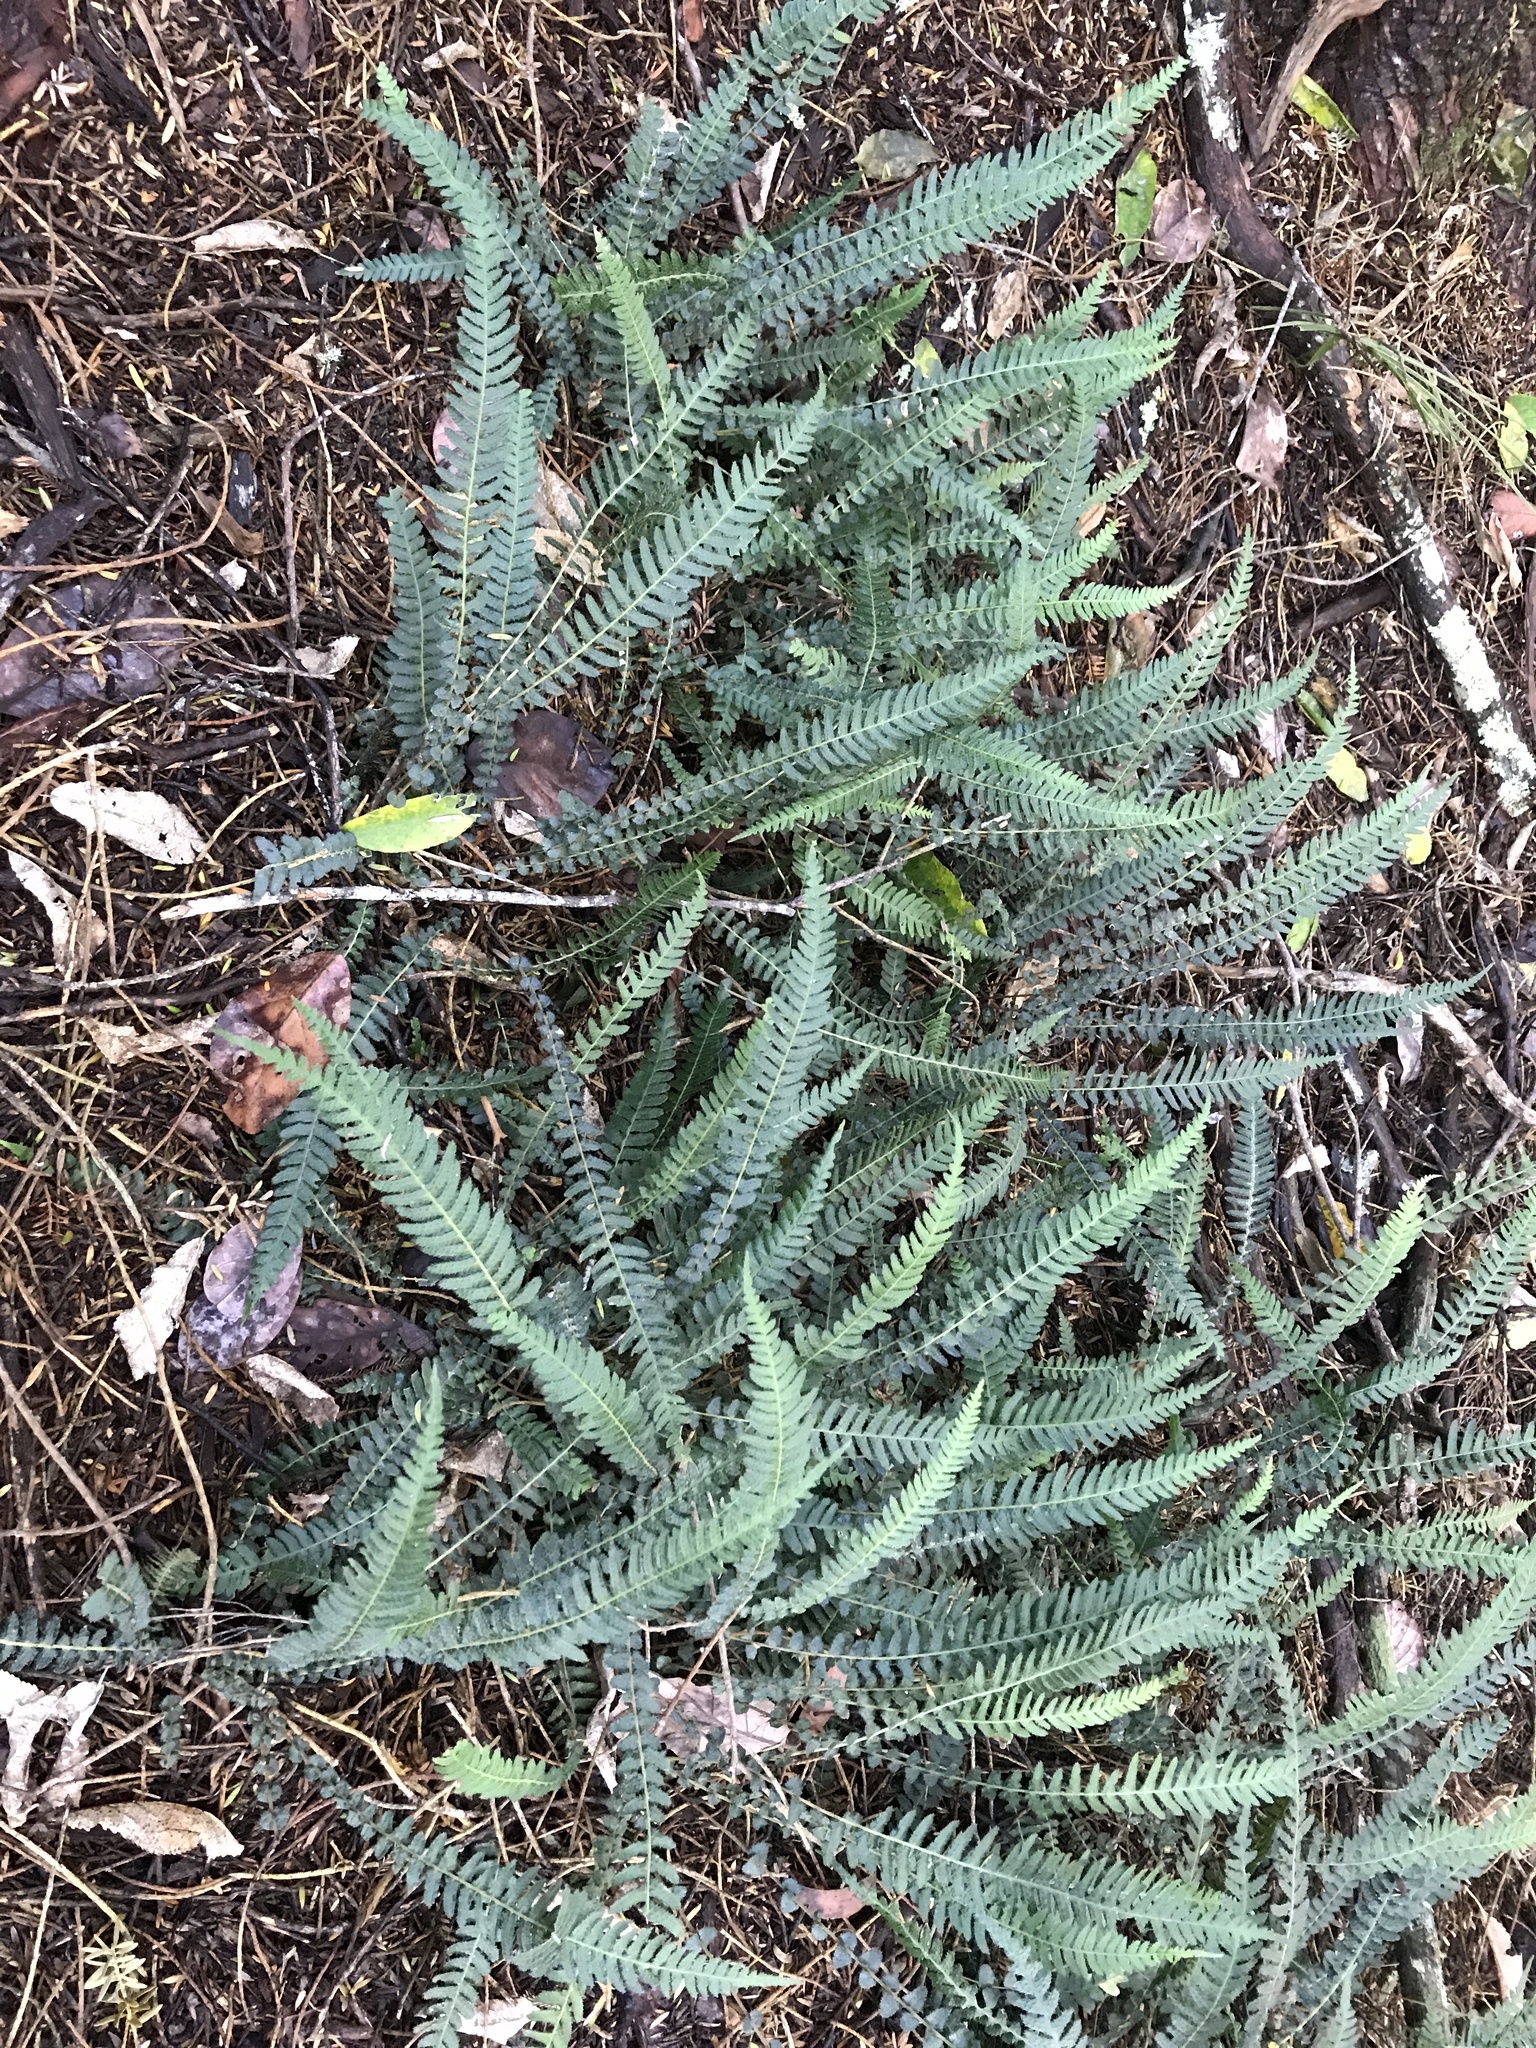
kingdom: Plantae
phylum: Tracheophyta
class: Polypodiopsida
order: Polypodiales
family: Blechnaceae
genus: Doodia
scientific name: Doodia australis
